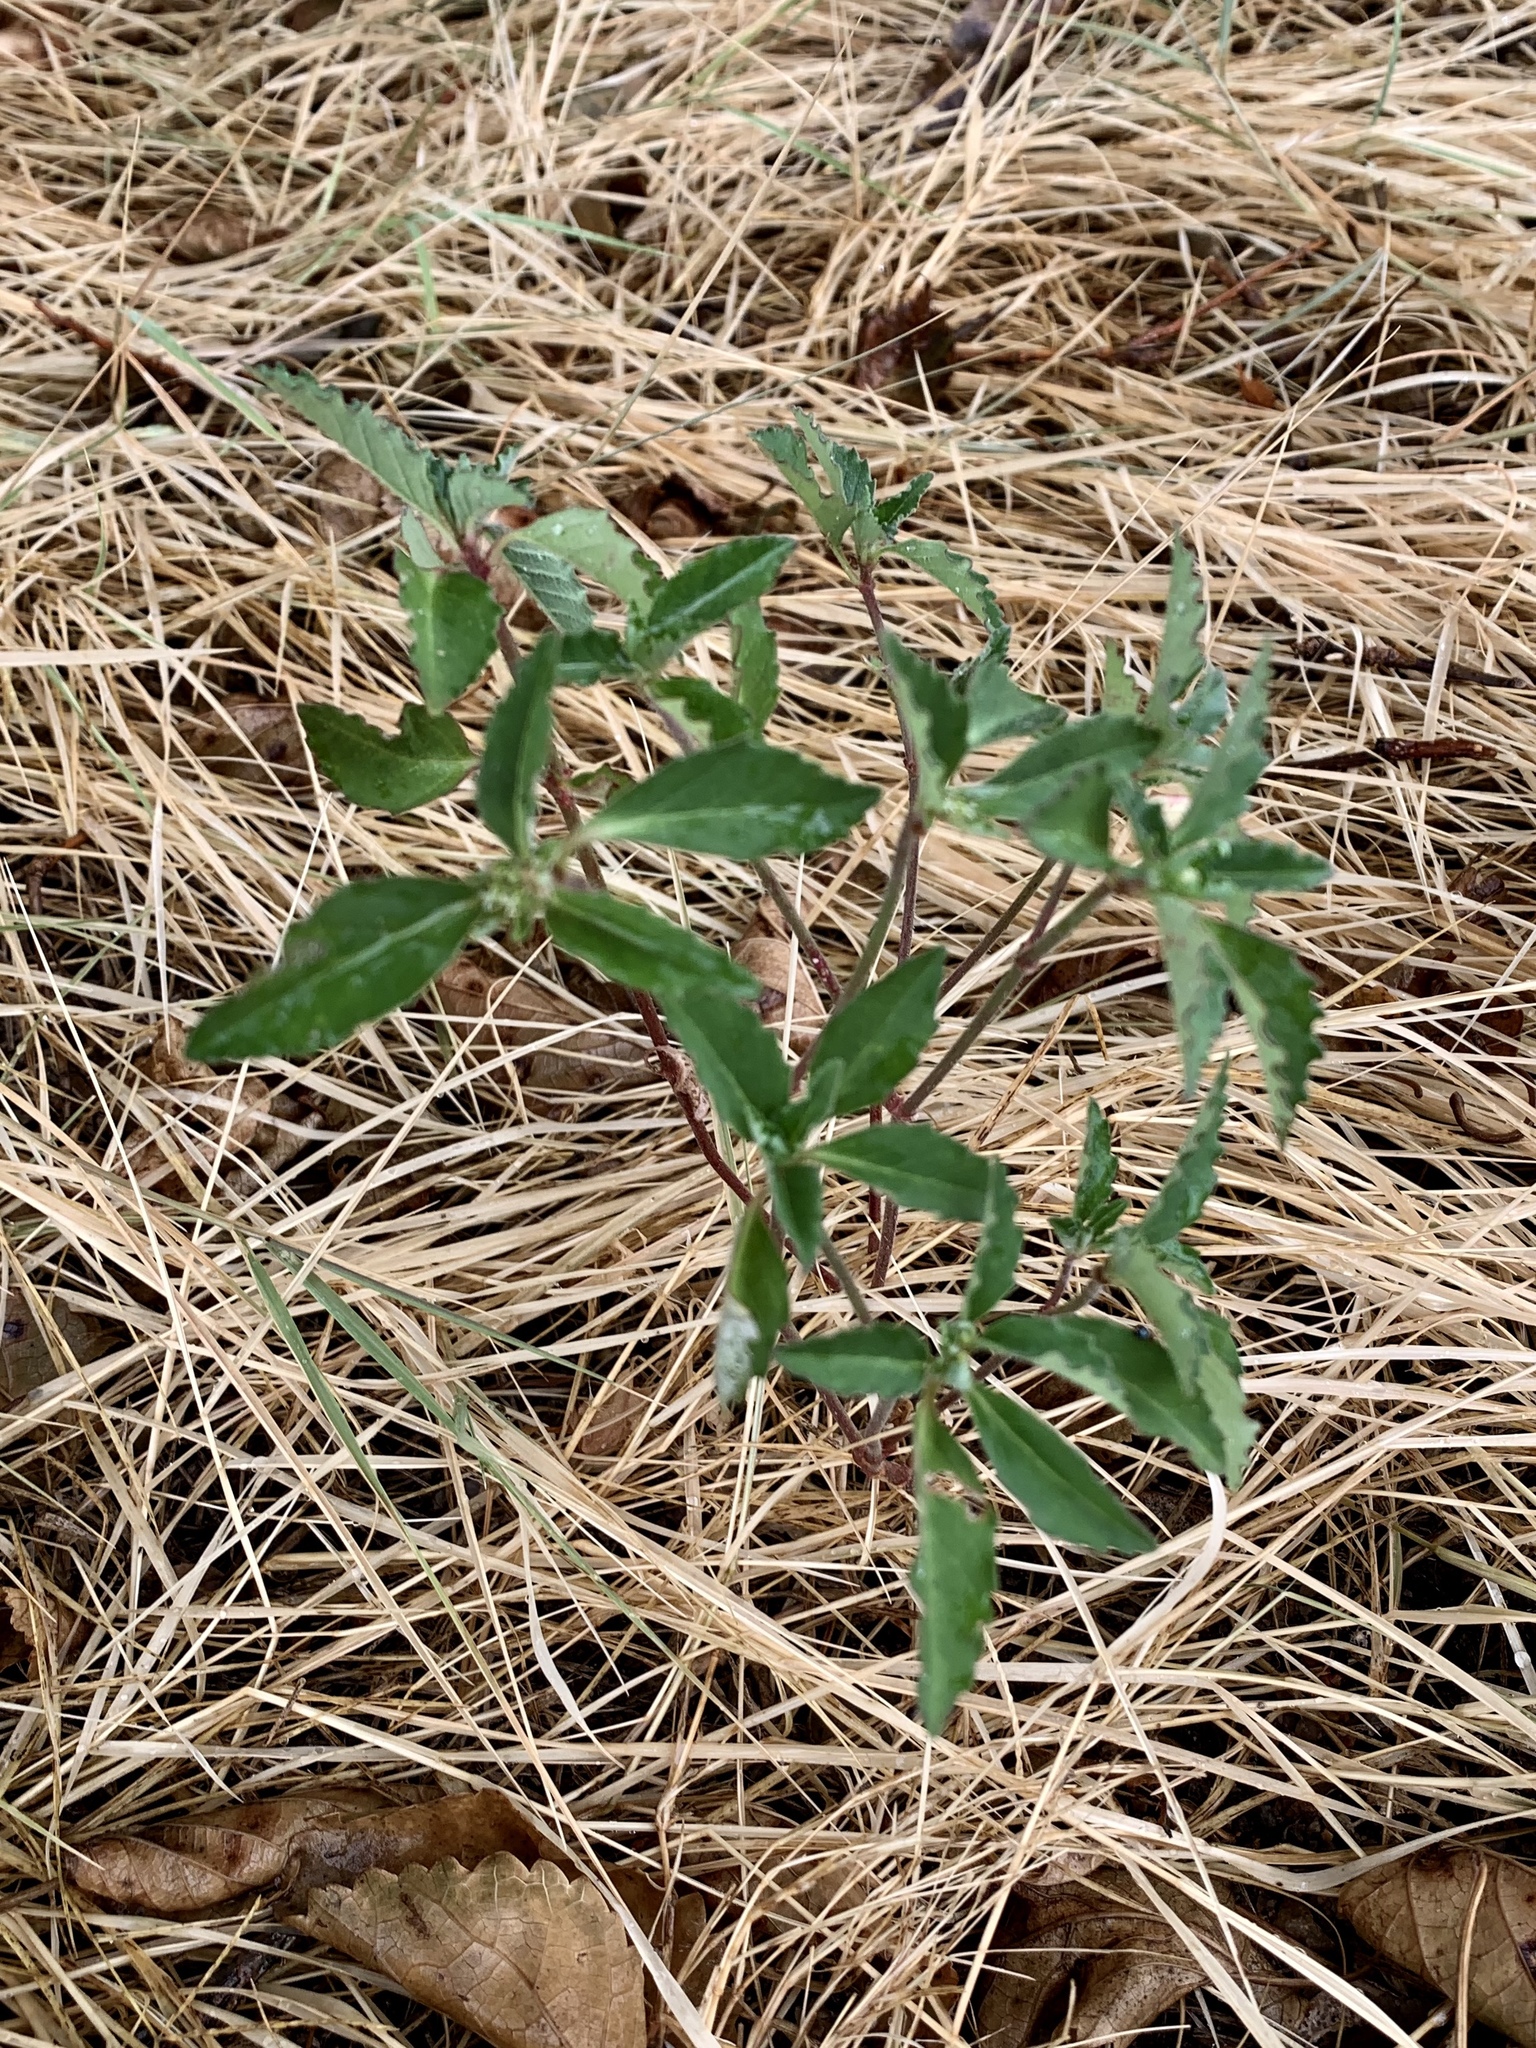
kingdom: Plantae
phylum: Tracheophyta
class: Magnoliopsida
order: Malpighiales
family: Euphorbiaceae
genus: Euphorbia
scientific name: Euphorbia
